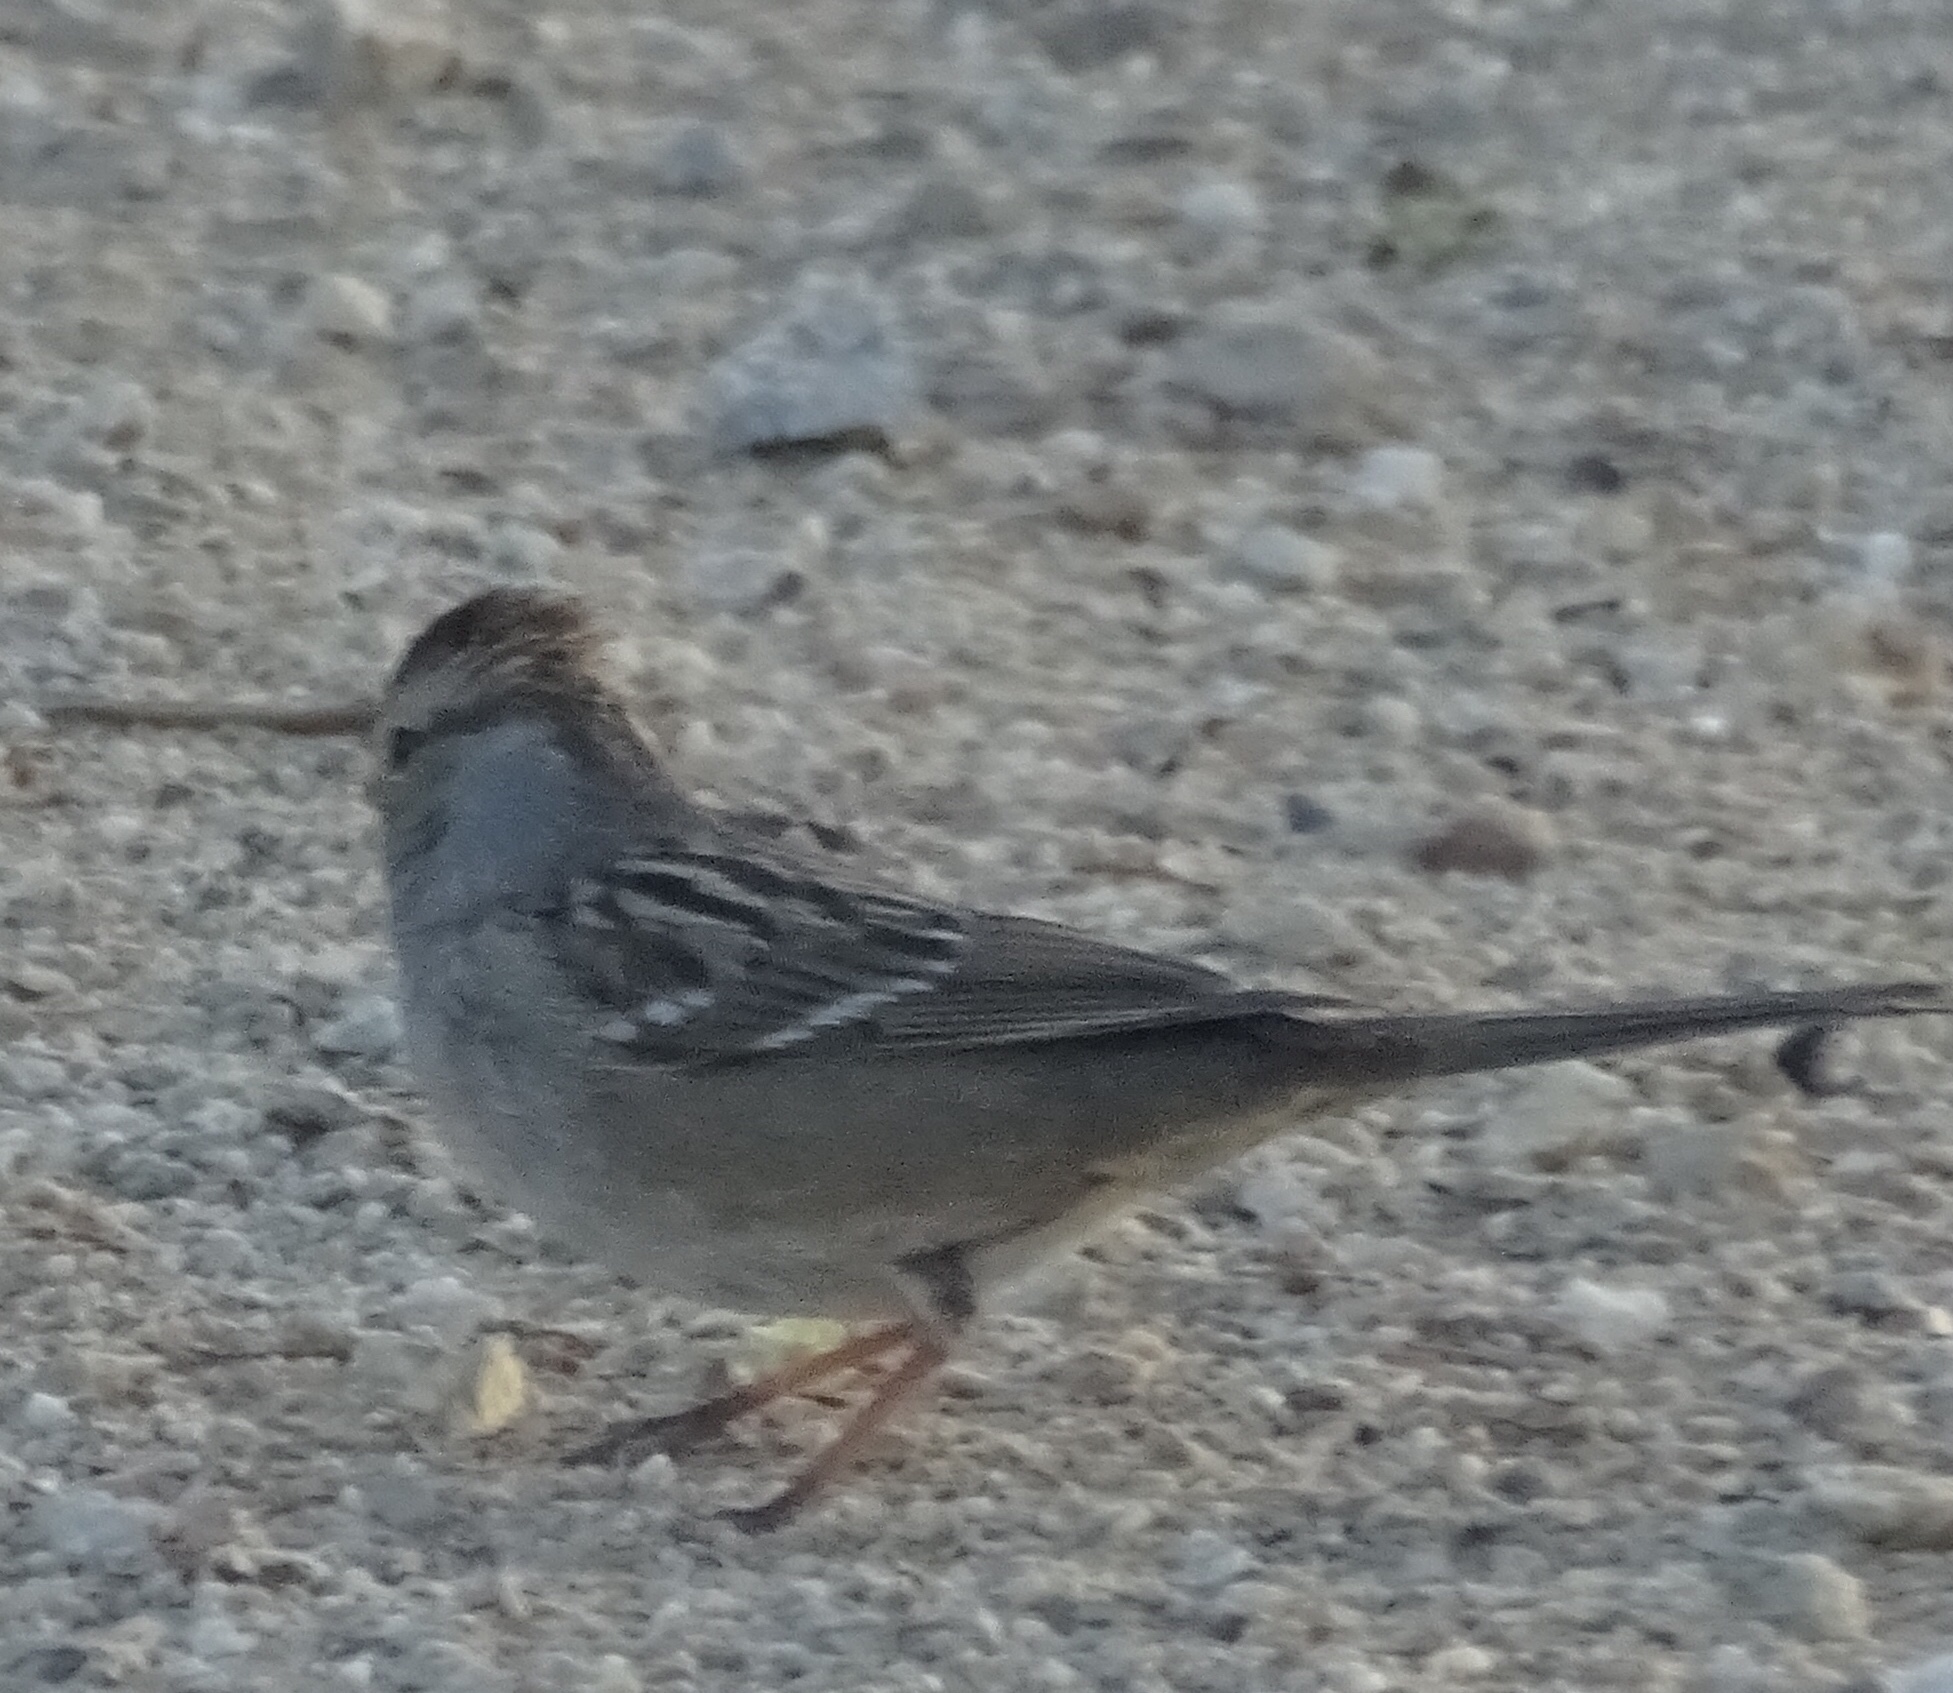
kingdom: Animalia
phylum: Chordata
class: Aves
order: Passeriformes
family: Passerellidae
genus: Zonotrichia
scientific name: Zonotrichia leucophrys
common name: White-crowned sparrow
